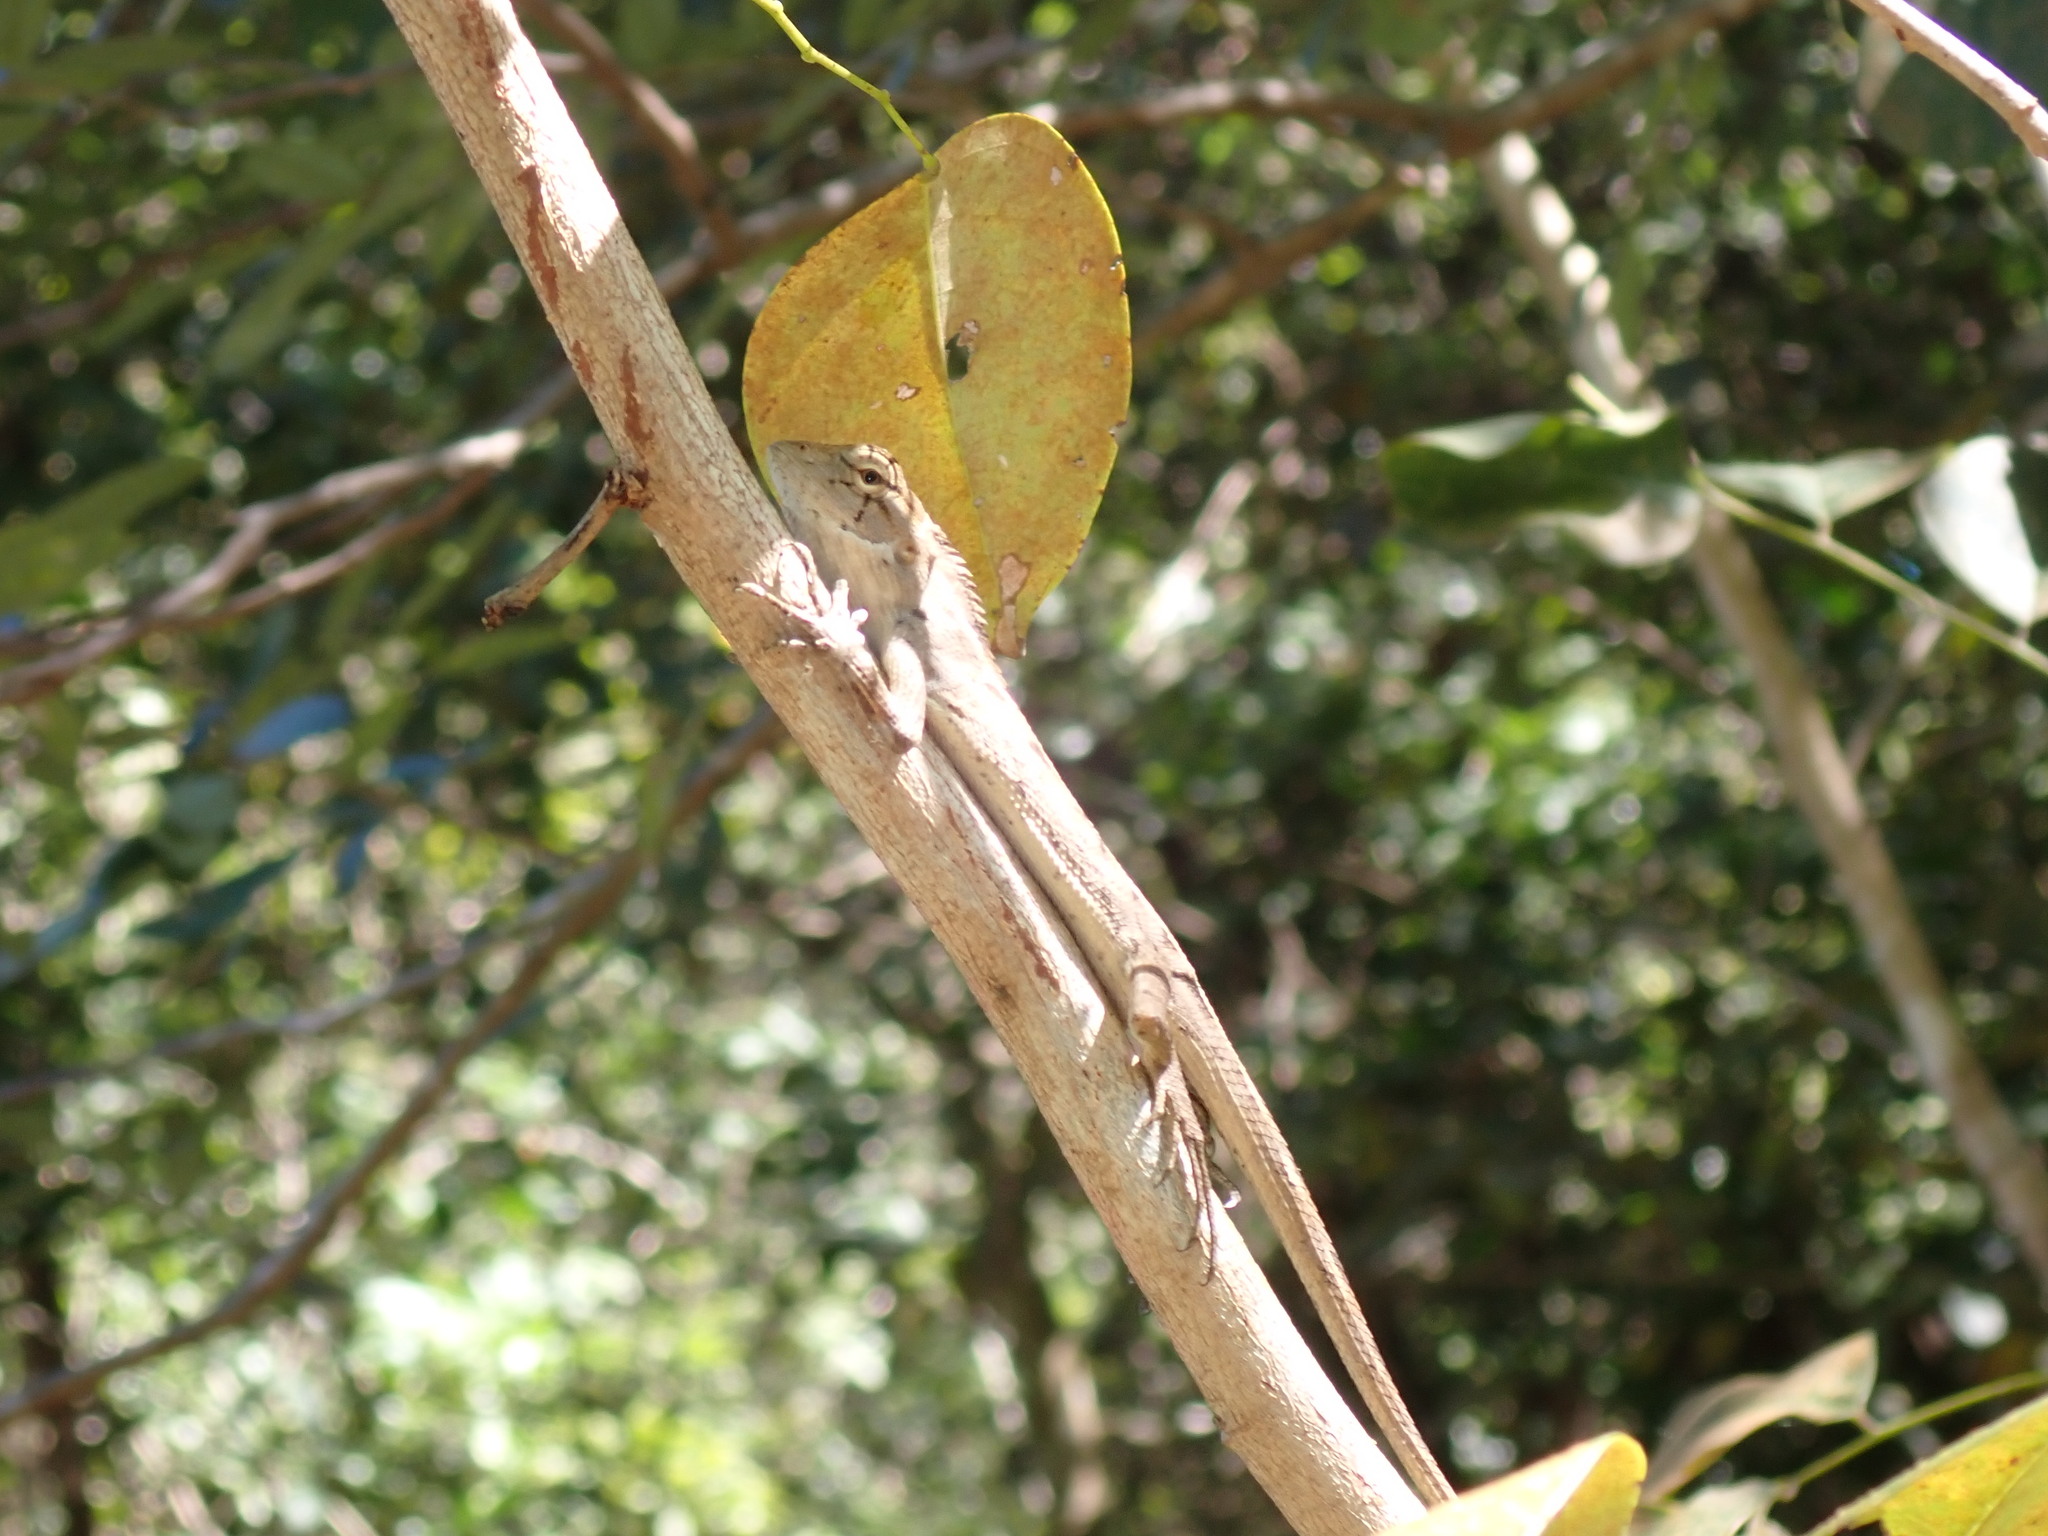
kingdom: Animalia
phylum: Chordata
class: Squamata
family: Agamidae
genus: Calotes
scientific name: Calotes versicolor
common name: Oriental garden lizard
